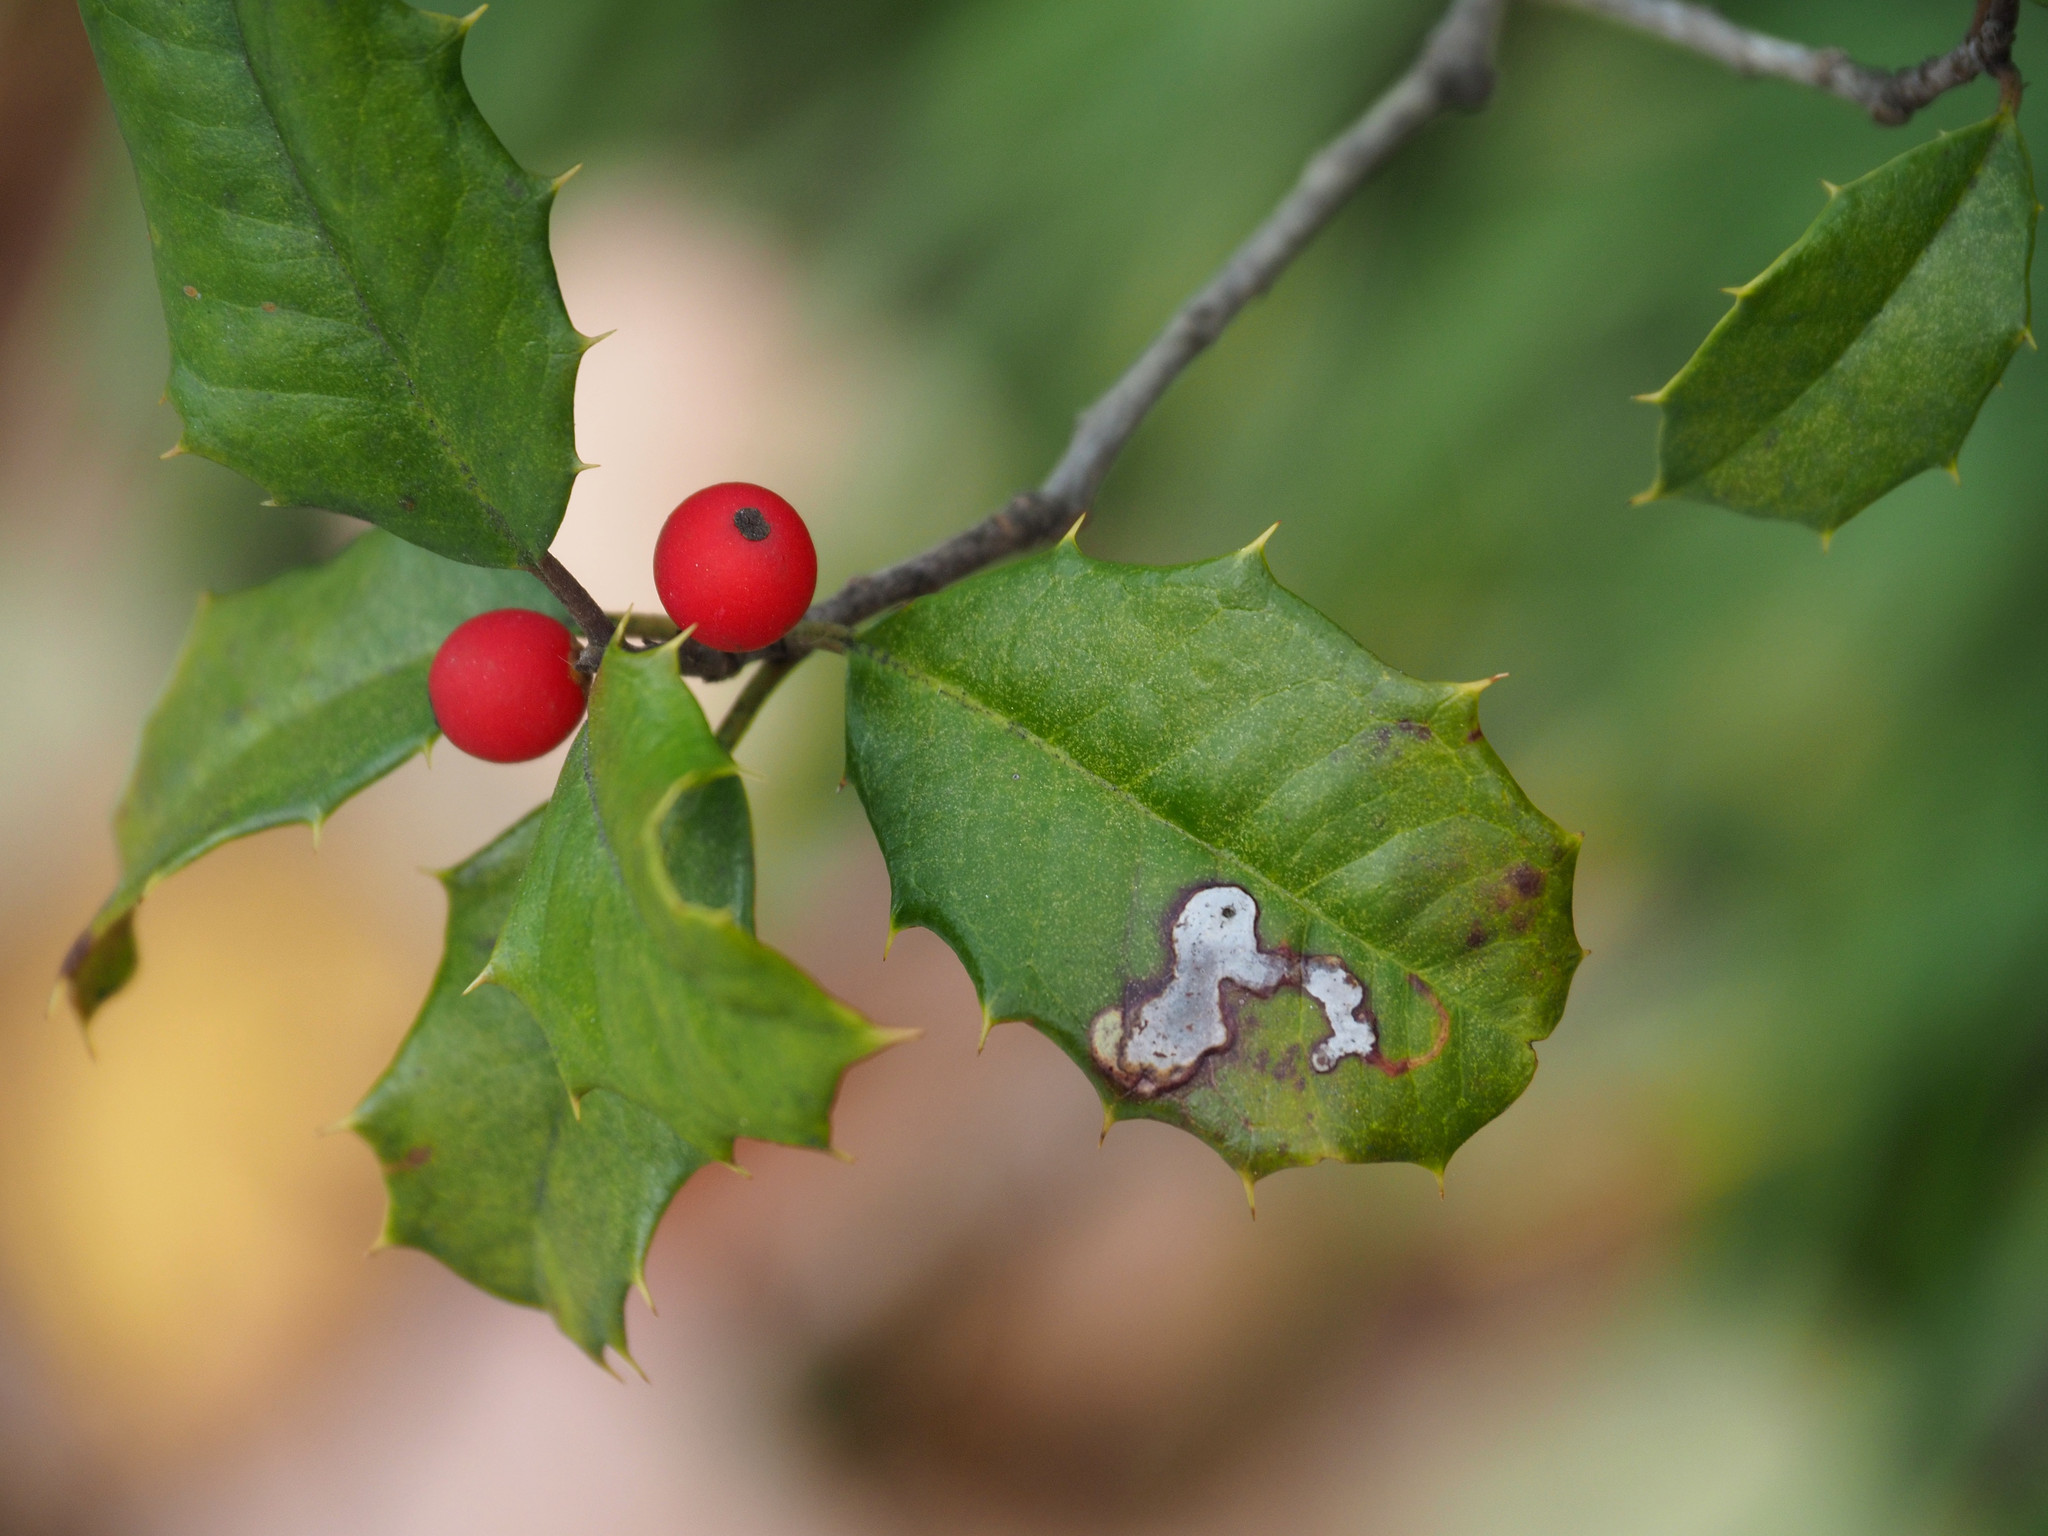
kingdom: Animalia
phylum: Arthropoda
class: Insecta
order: Diptera
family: Agromyzidae
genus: Phytomyza
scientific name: Phytomyza ilicicola
